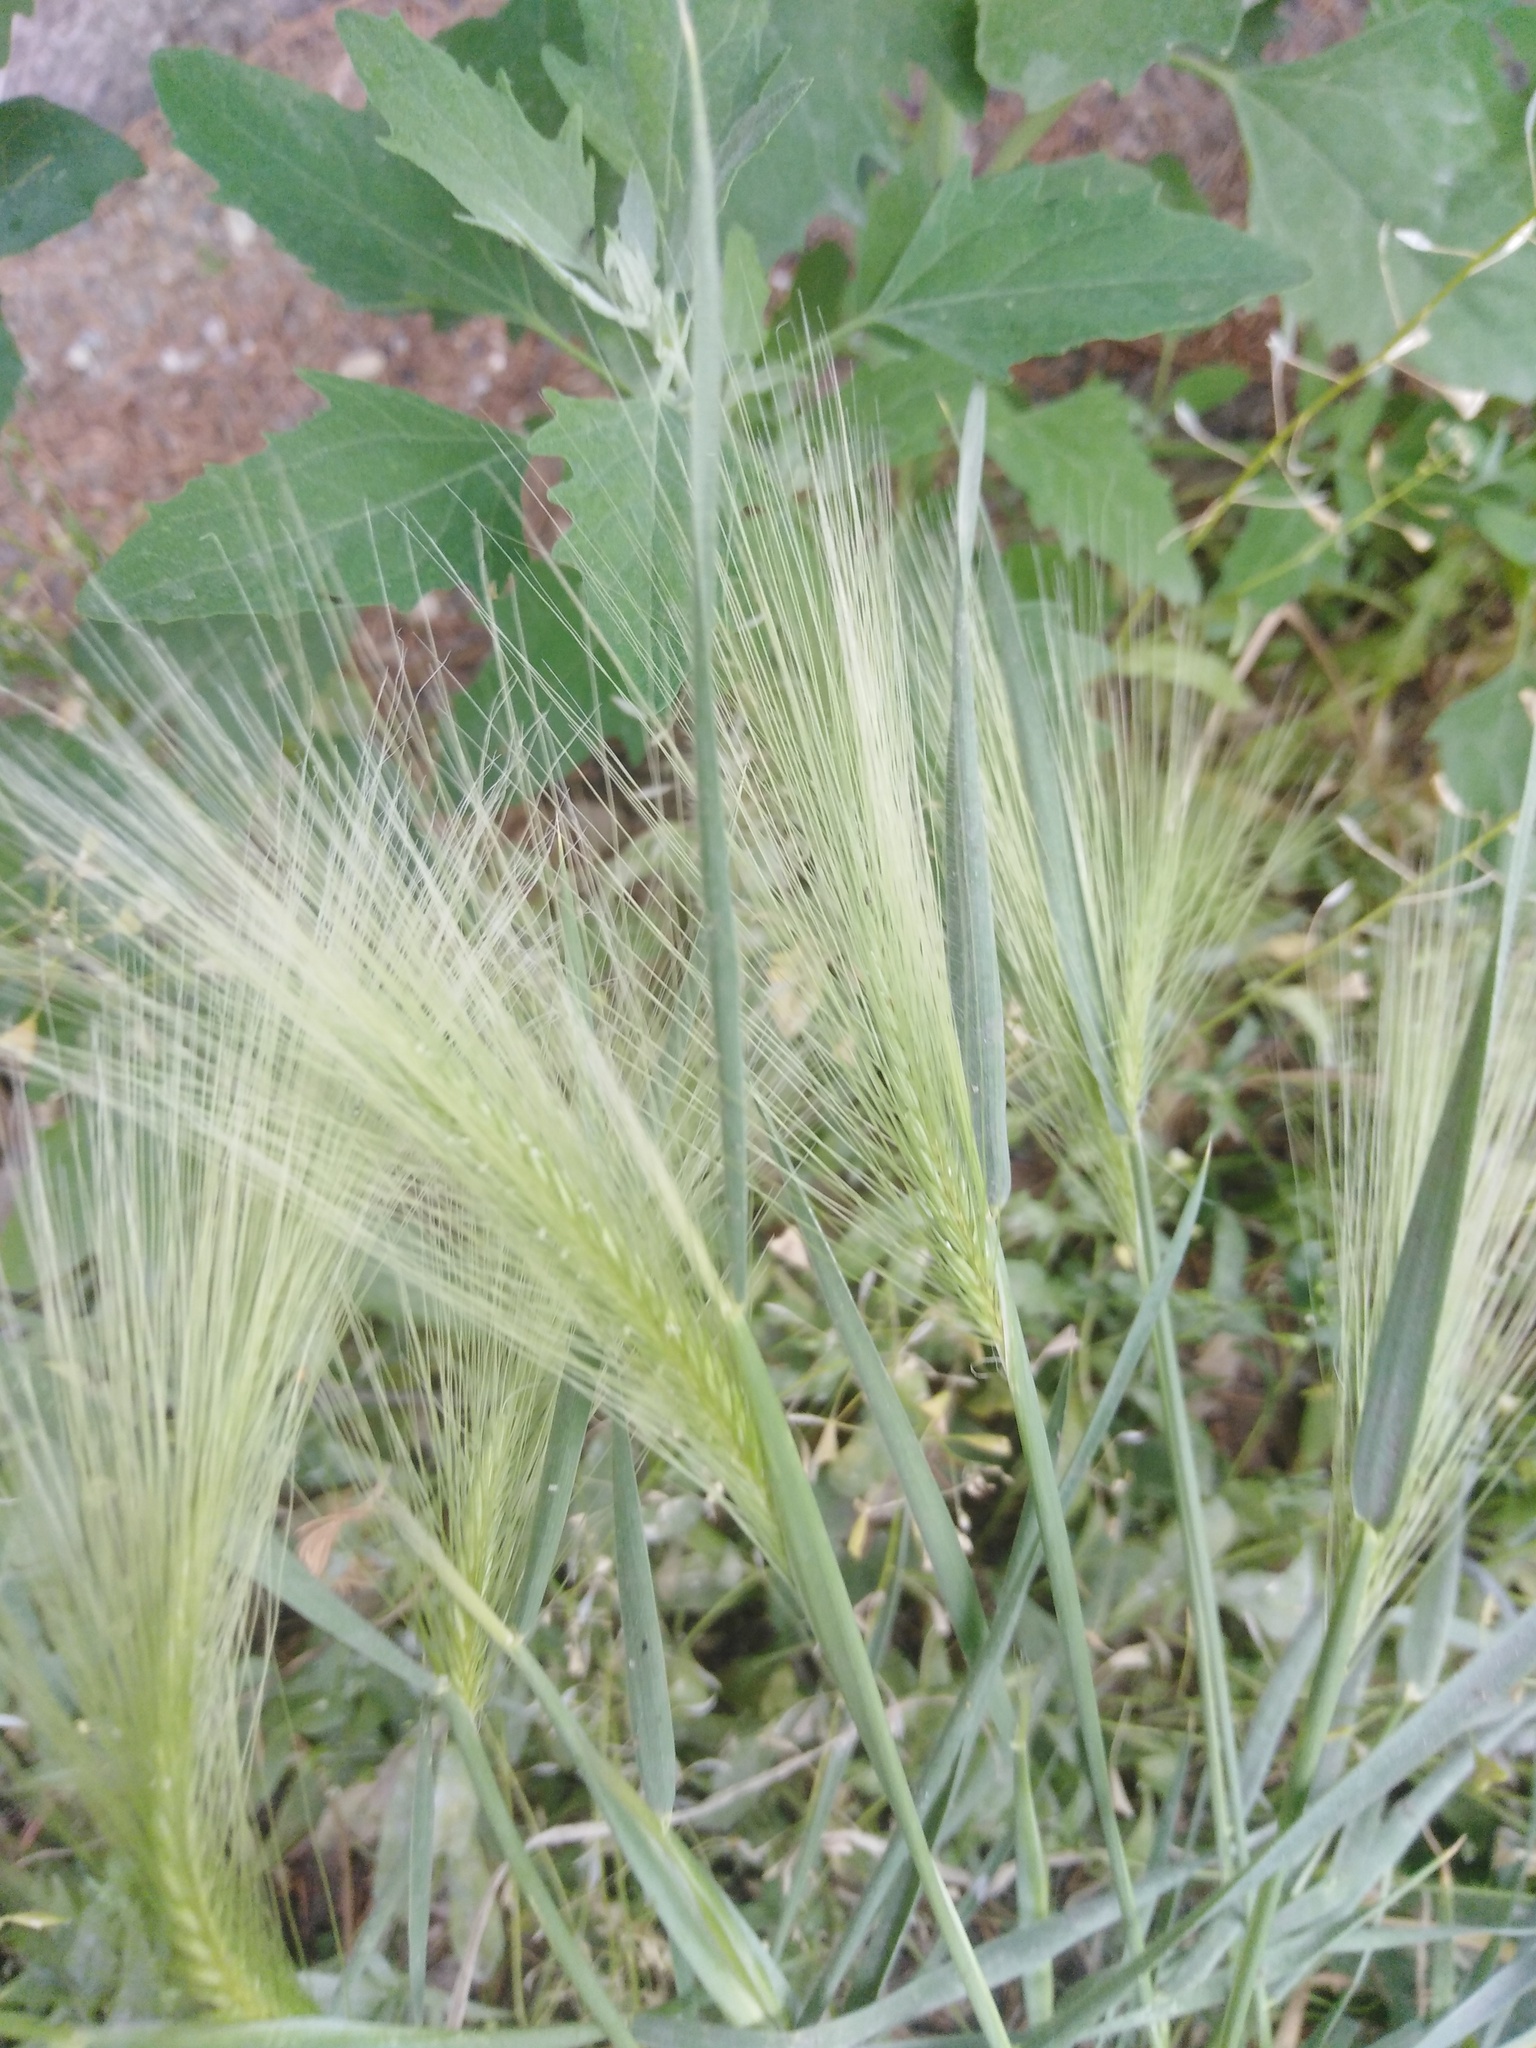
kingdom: Plantae
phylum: Tracheophyta
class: Liliopsida
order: Poales
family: Poaceae
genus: Hordeum
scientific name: Hordeum jubatum
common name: Foxtail barley
